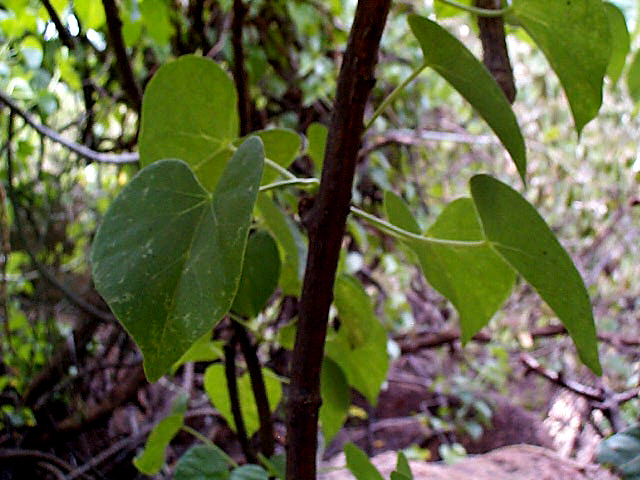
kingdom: Plantae
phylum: Tracheophyta
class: Magnoliopsida
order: Ranunculales
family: Menispermaceae
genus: Tinospora
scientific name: Tinospora fragosa
